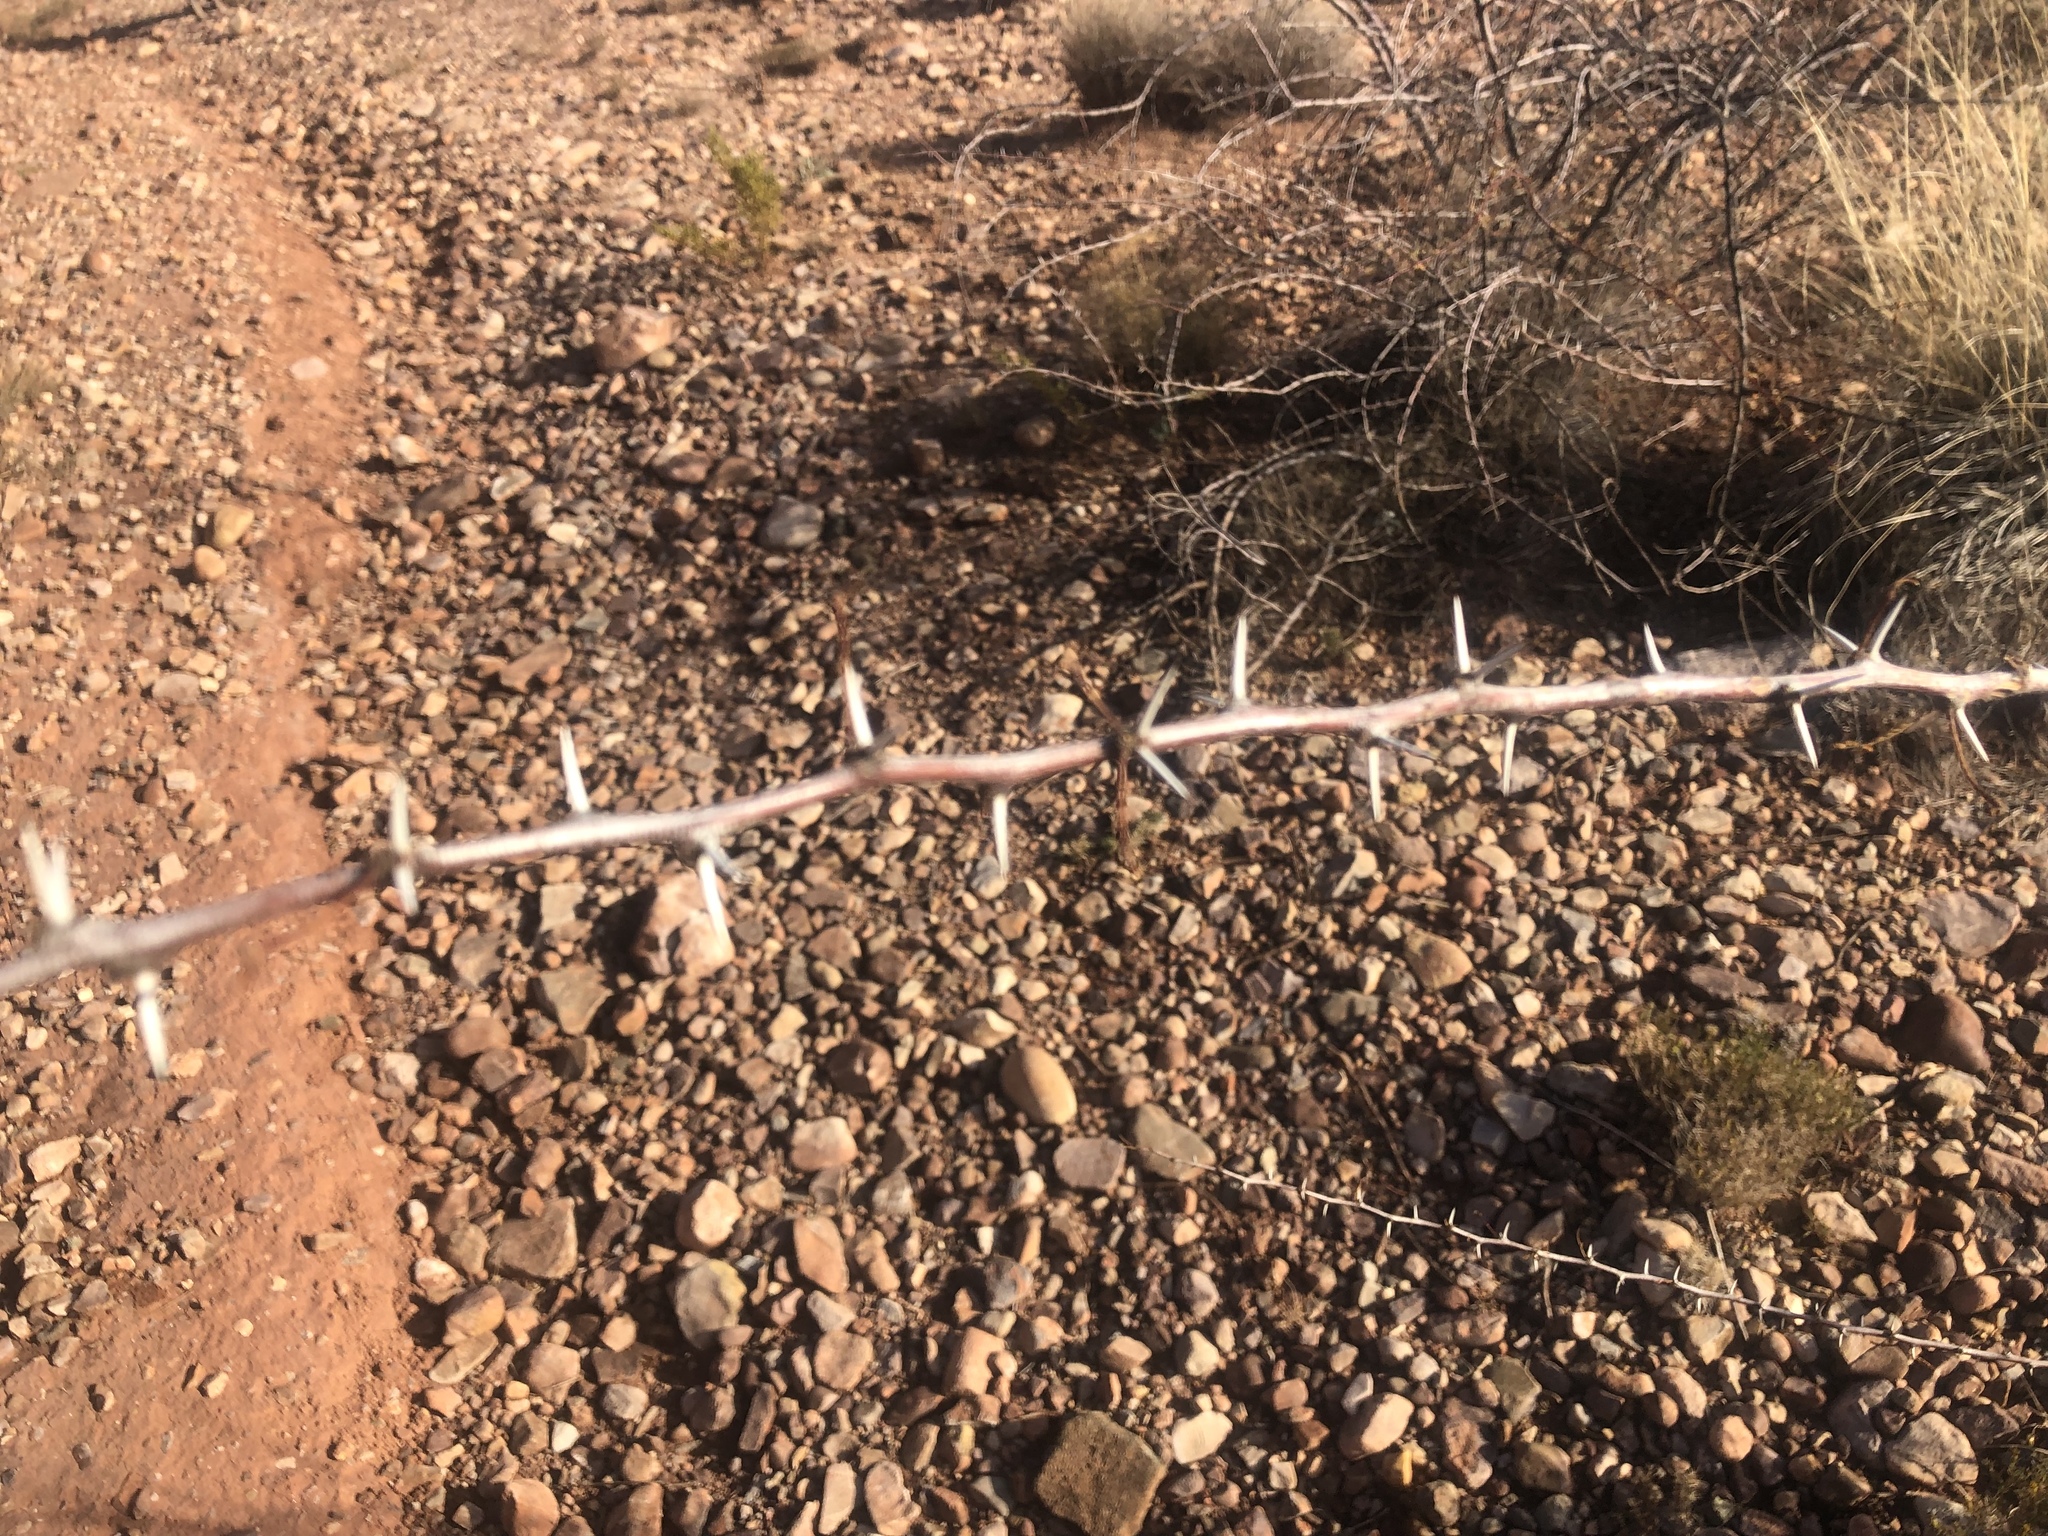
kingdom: Plantae
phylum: Tracheophyta
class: Magnoliopsida
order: Fabales
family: Fabaceae
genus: Vachellia
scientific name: Vachellia constricta
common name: Mescat acacia
